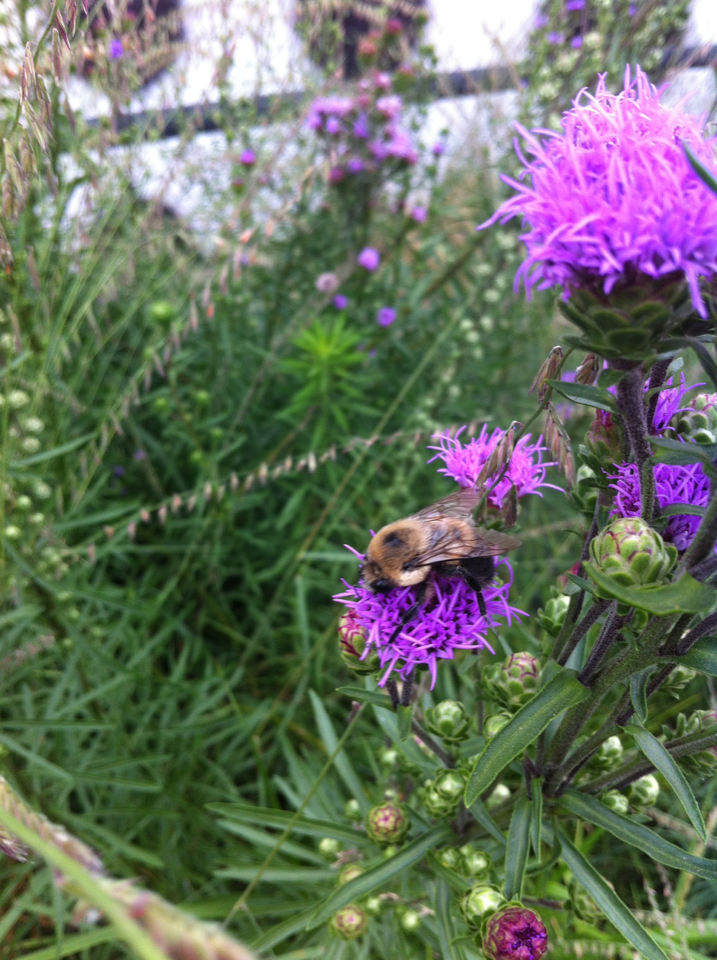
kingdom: Animalia
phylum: Arthropoda
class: Insecta
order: Hymenoptera
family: Apidae
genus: Bombus
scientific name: Bombus griseocollis
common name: Brown-belted bumble bee
